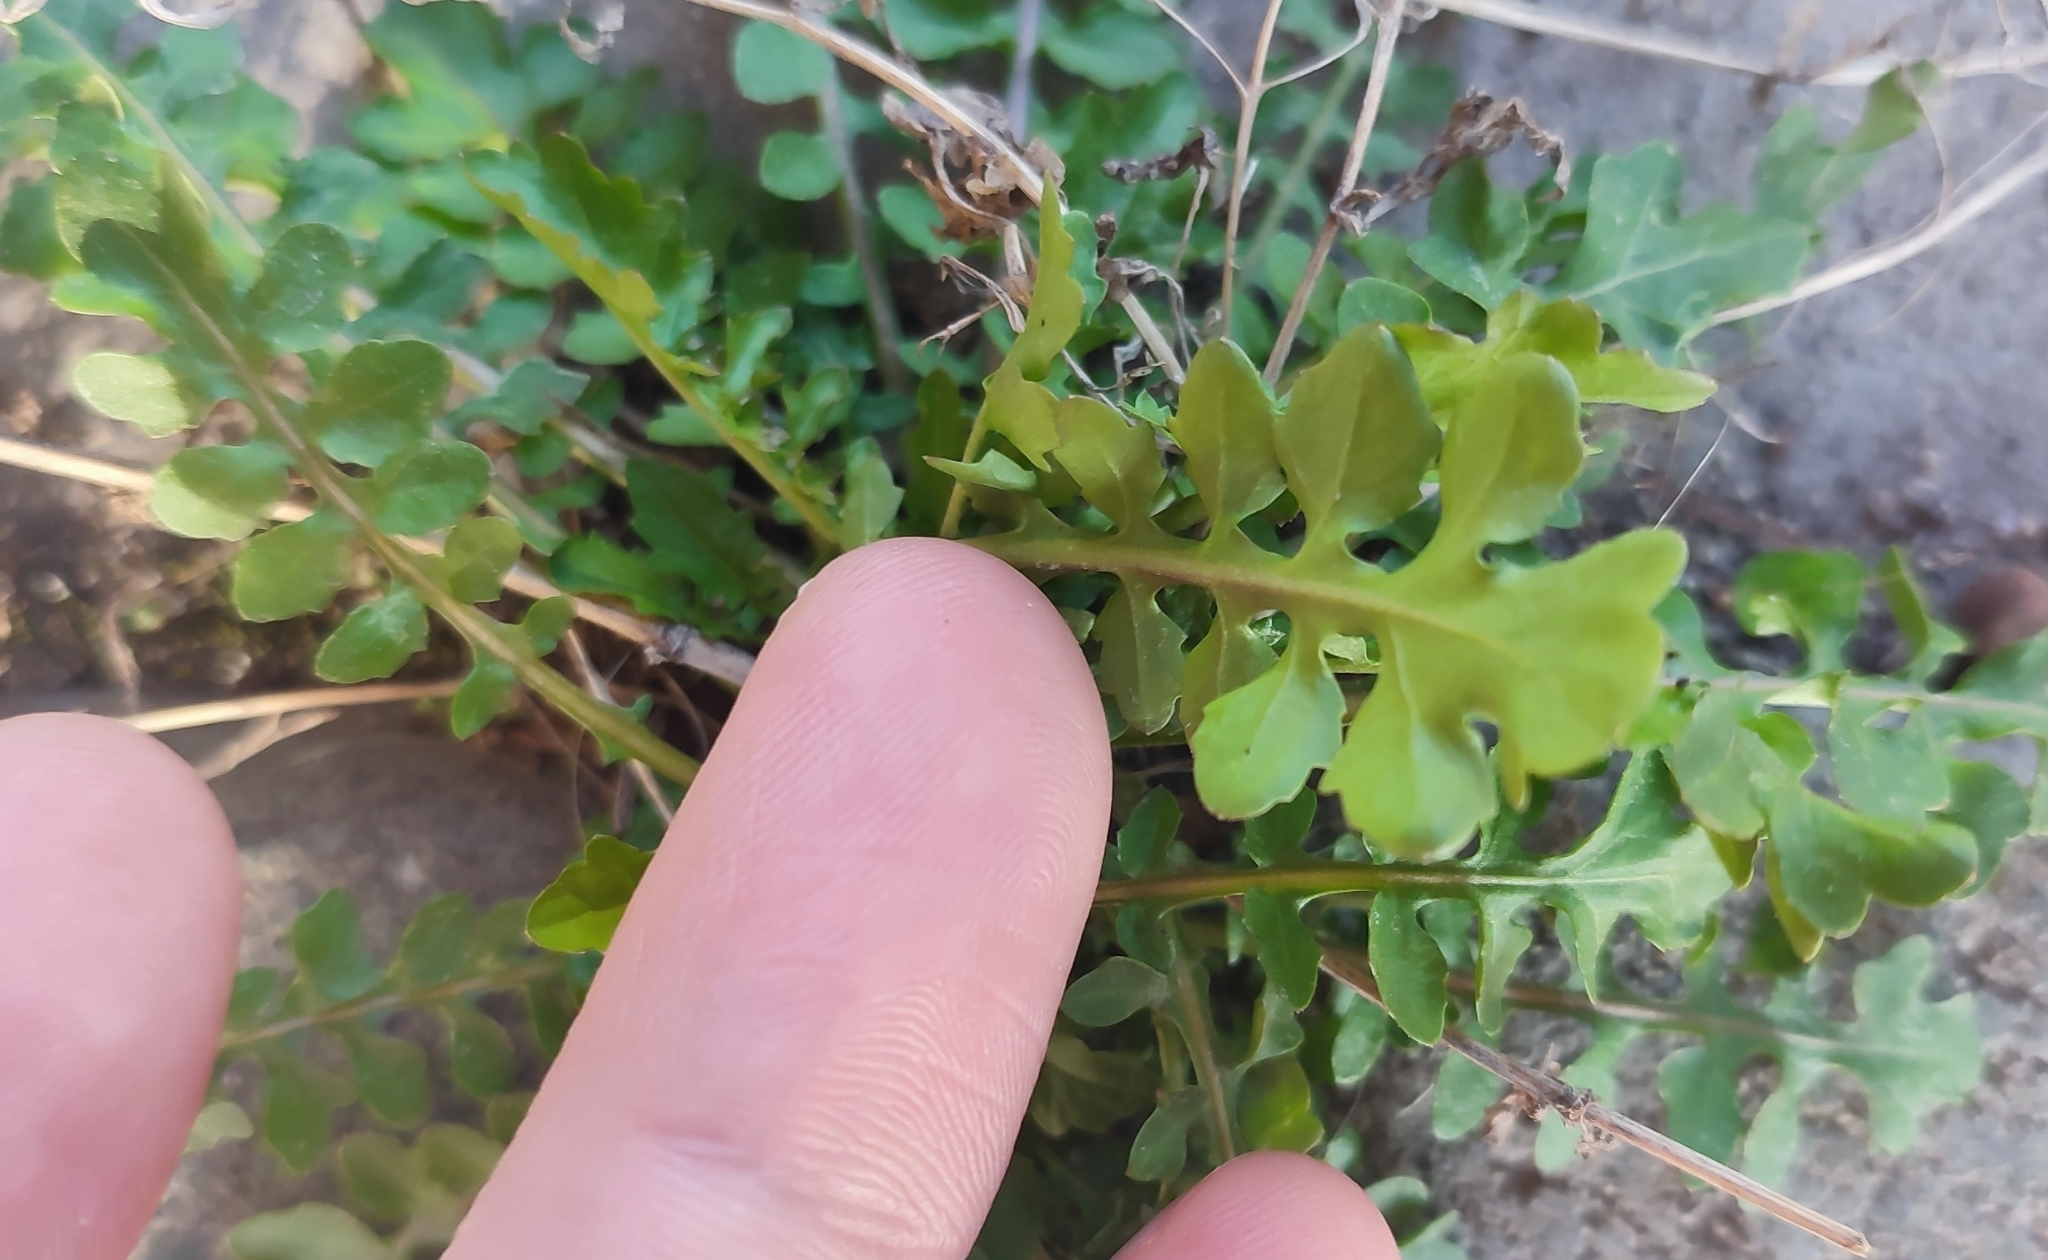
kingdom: Plantae
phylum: Tracheophyta
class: Magnoliopsida
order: Brassicales
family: Brassicaceae
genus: Rorippa
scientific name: Rorippa palustris
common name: Marsh yellow-cress
